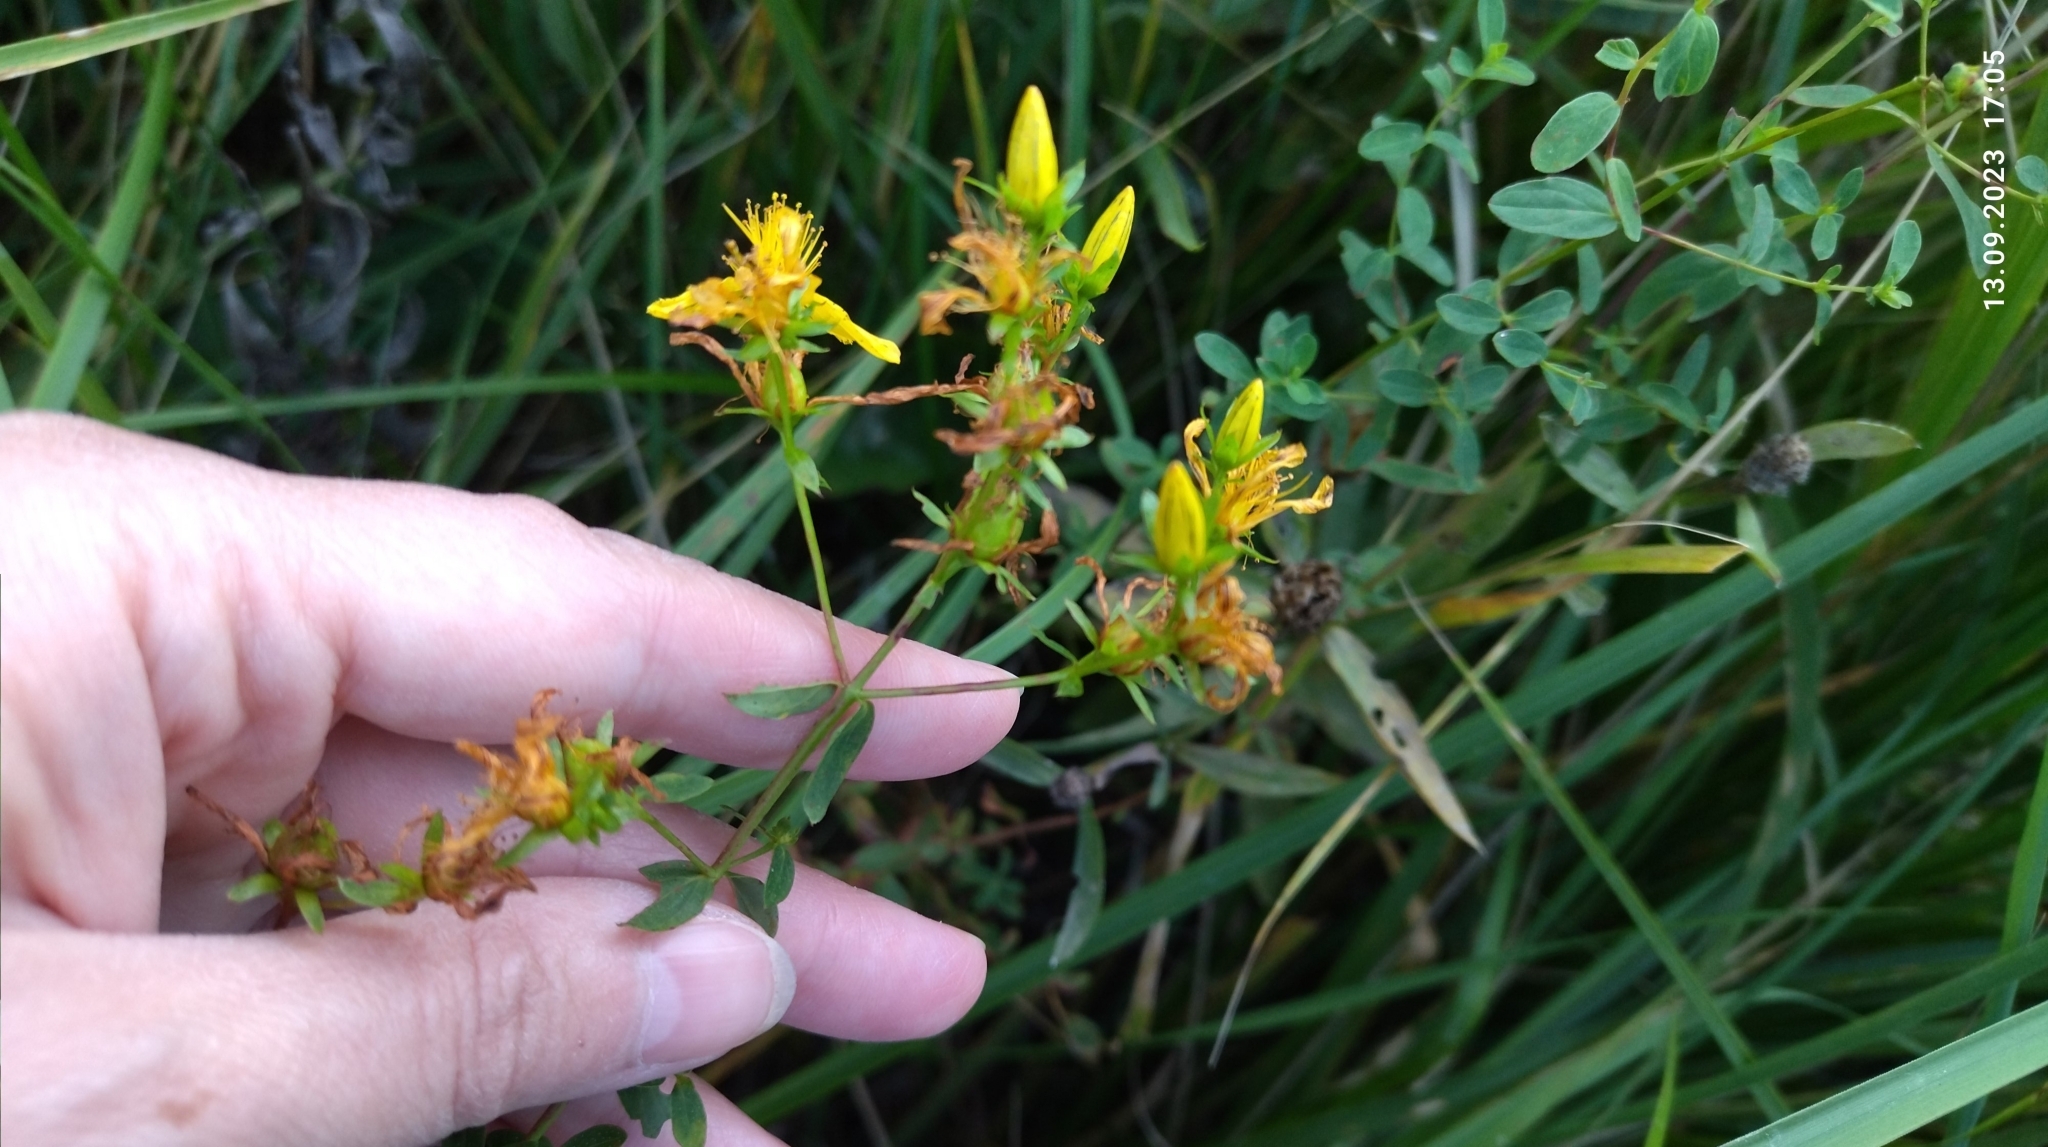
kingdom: Plantae
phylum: Tracheophyta
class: Magnoliopsida
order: Malpighiales
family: Hypericaceae
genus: Hypericum
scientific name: Hypericum perforatum
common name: Common st. johnswort
